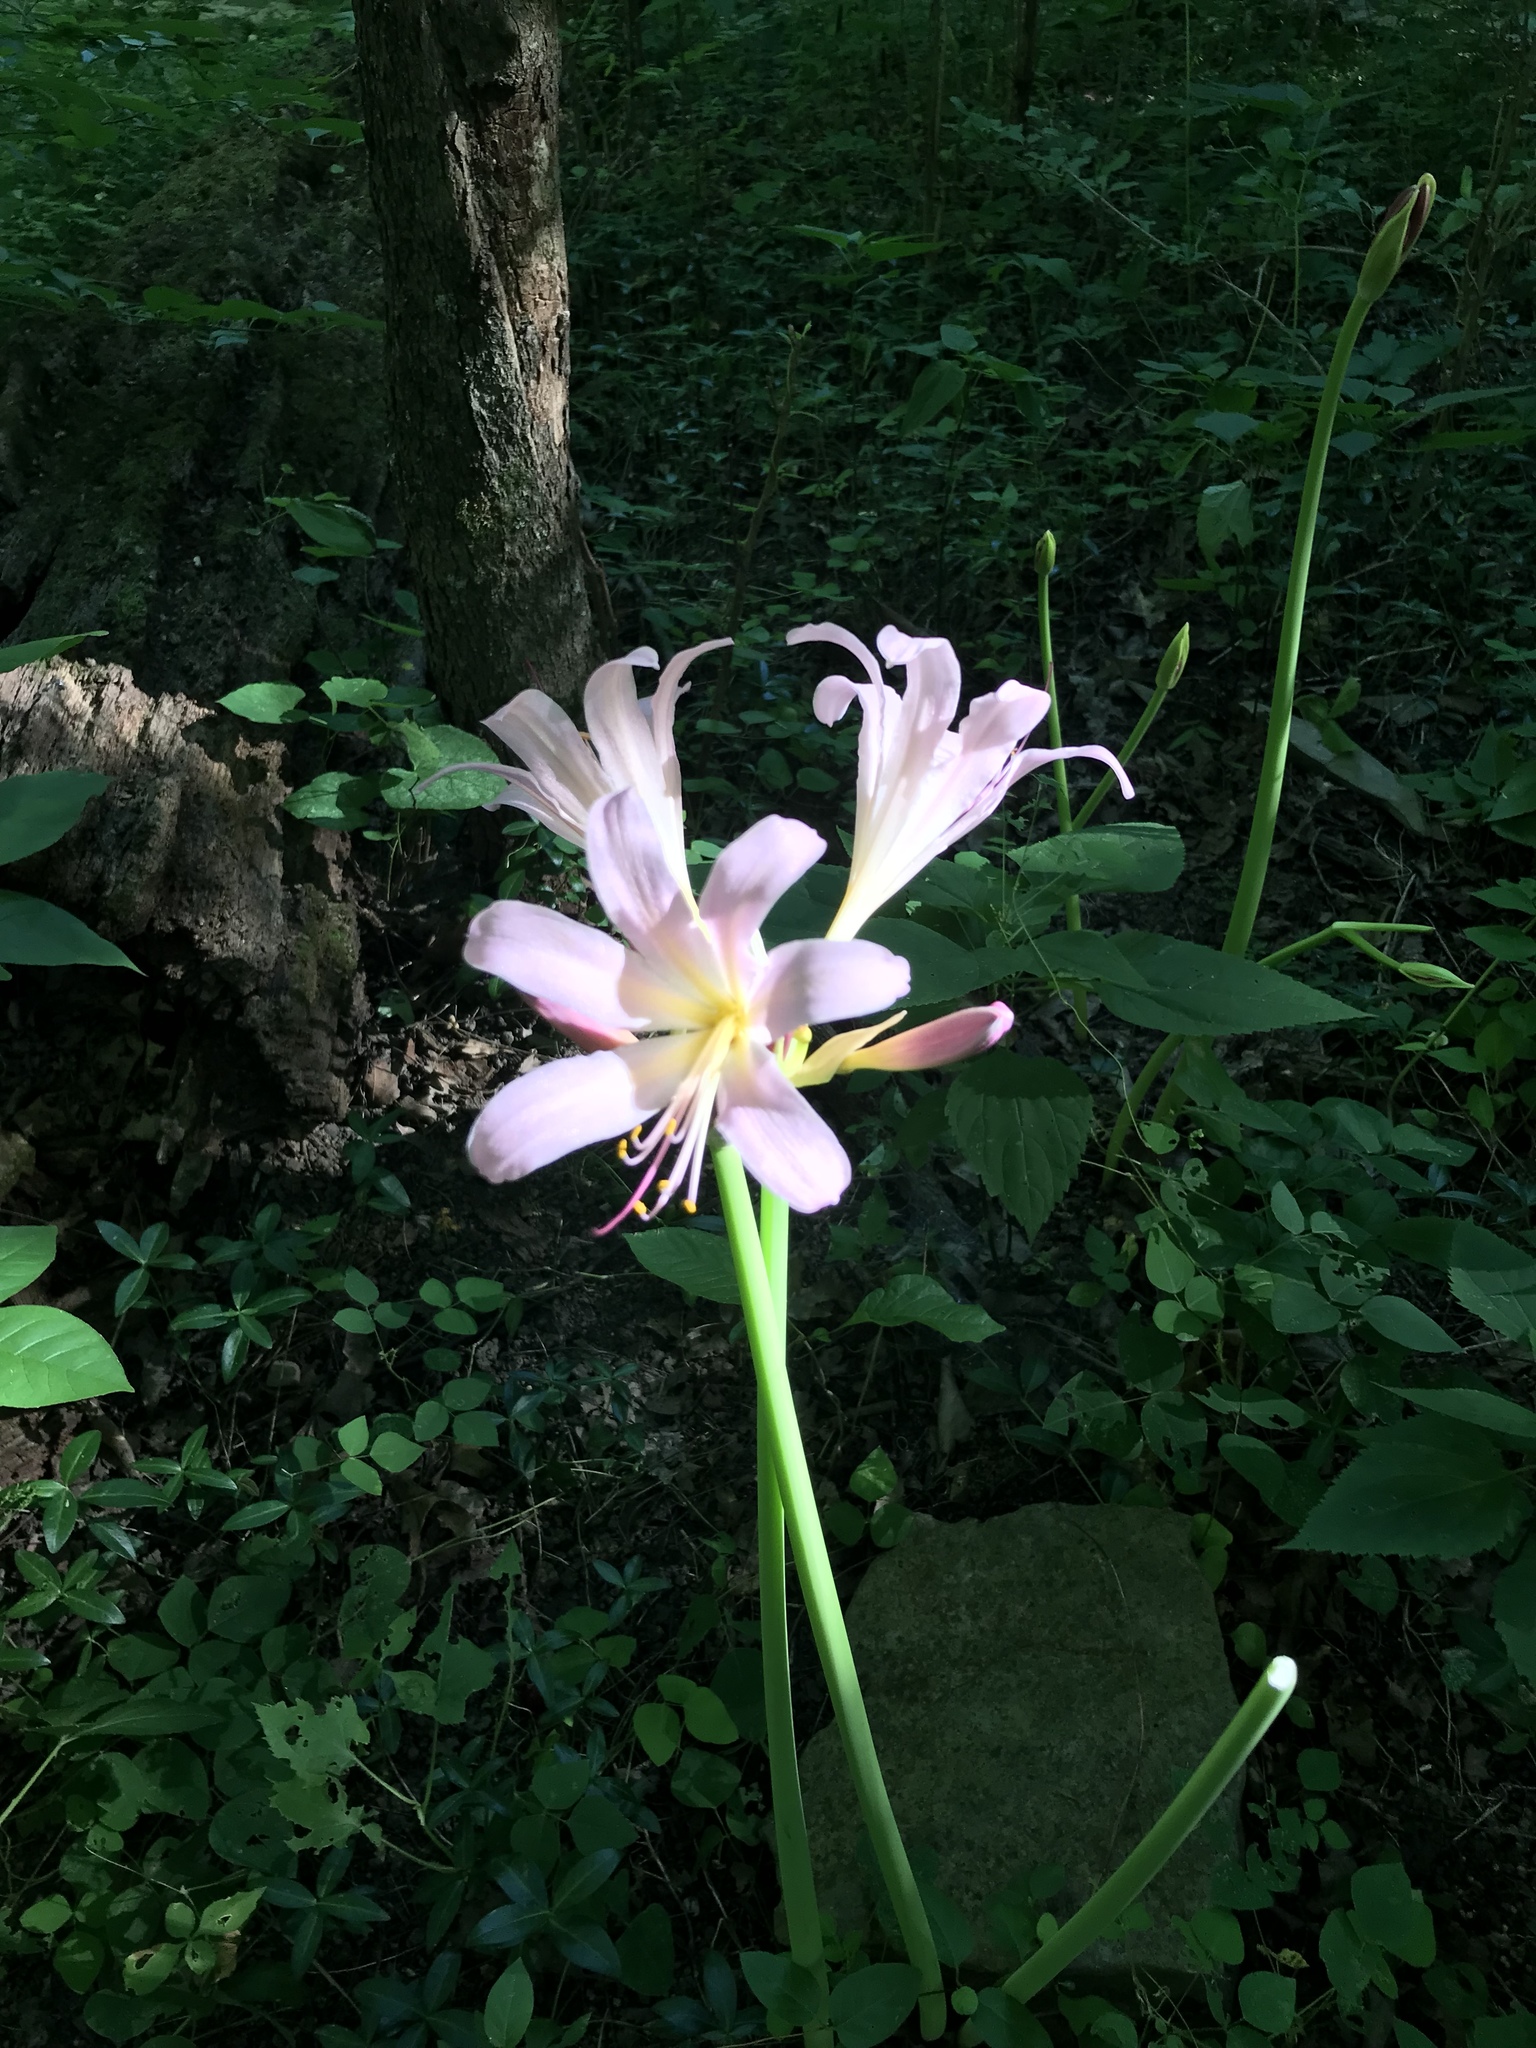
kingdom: Plantae
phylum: Tracheophyta
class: Liliopsida
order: Asparagales
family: Amaryllidaceae
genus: Lycoris
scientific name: Lycoris squamigera
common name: Magic-lily
